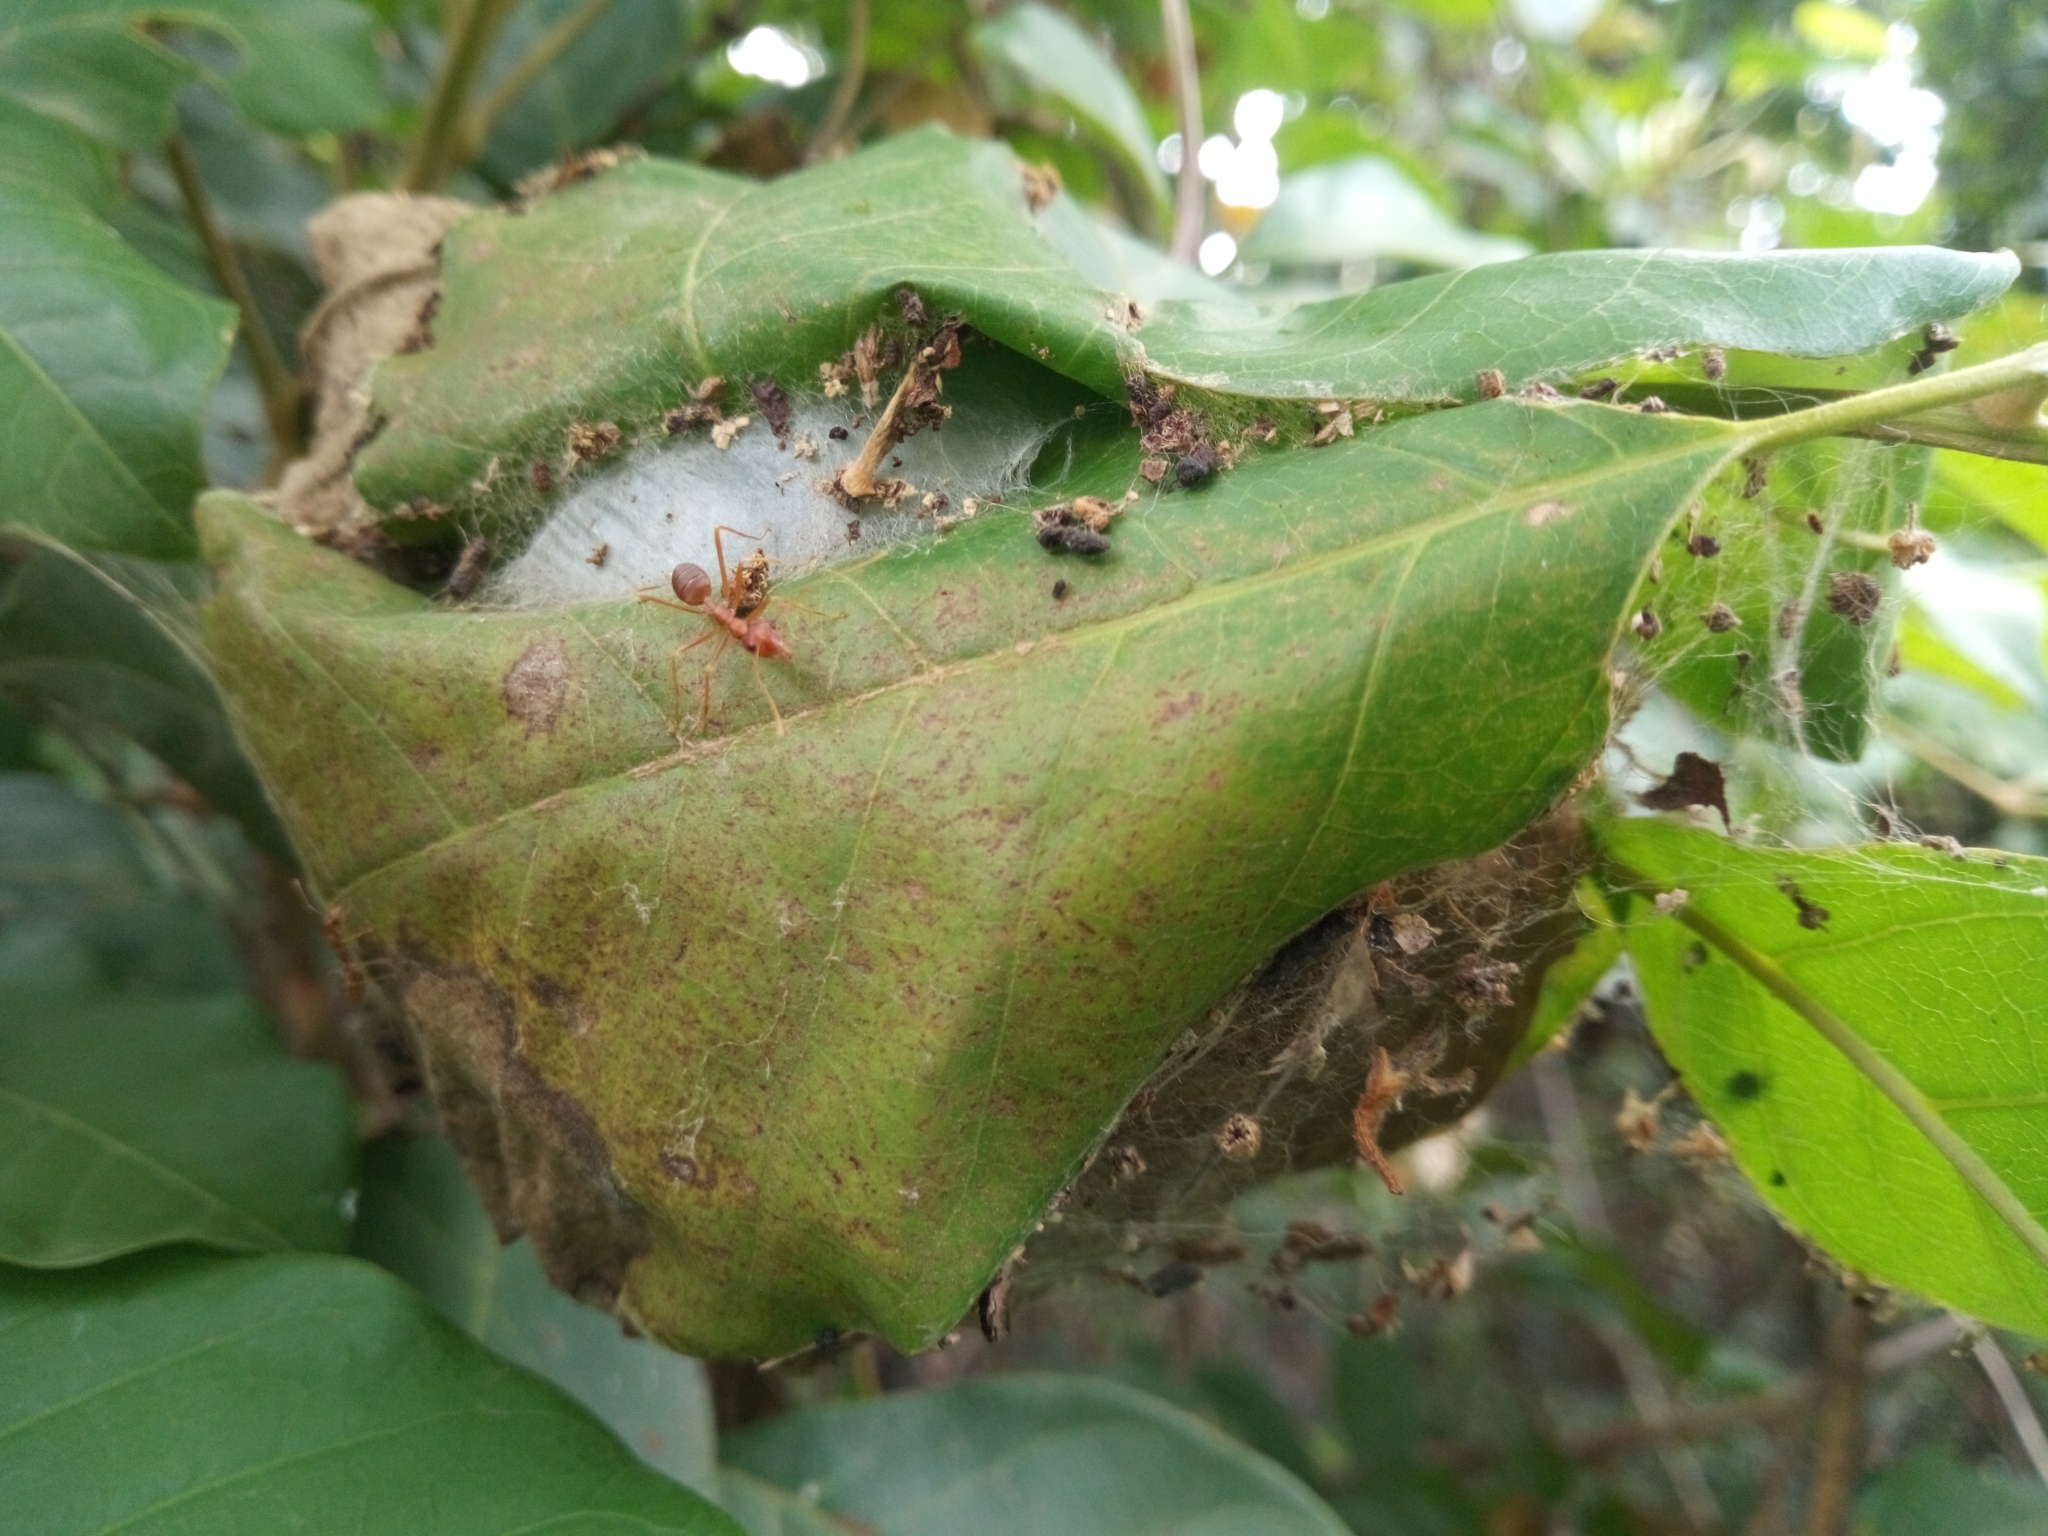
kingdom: Animalia
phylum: Arthropoda
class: Insecta
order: Hymenoptera
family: Formicidae
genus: Oecophylla
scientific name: Oecophylla longinoda
